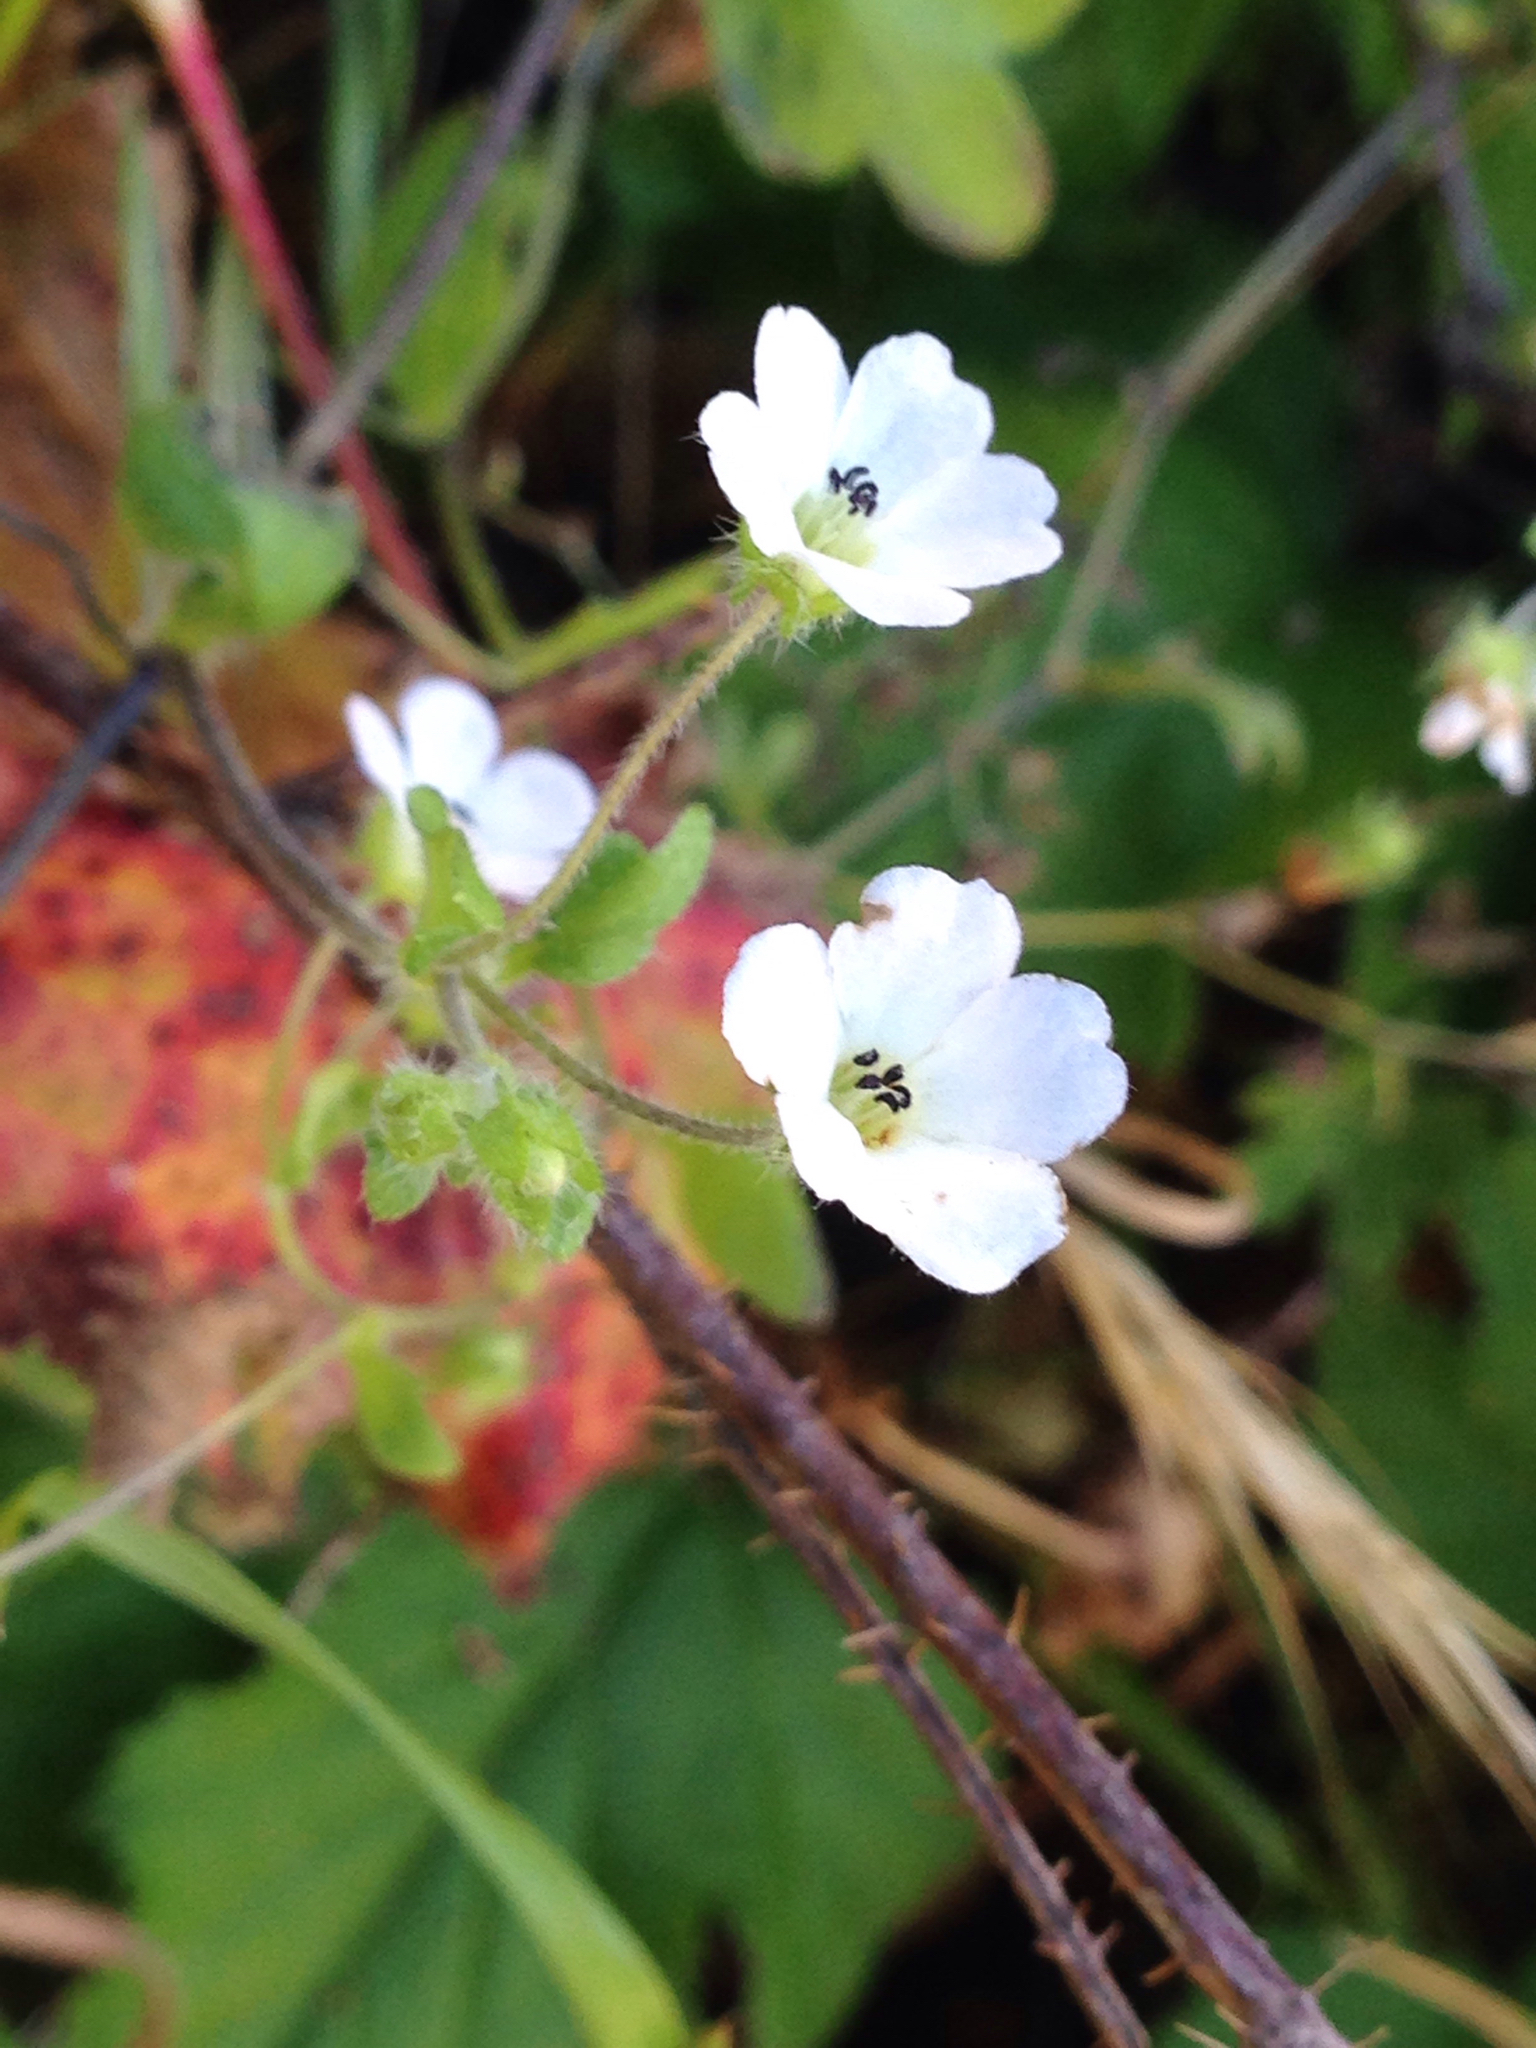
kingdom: Plantae
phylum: Tracheophyta
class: Magnoliopsida
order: Boraginales
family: Hydrophyllaceae
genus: Nemophila
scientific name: Nemophila heterophylla
